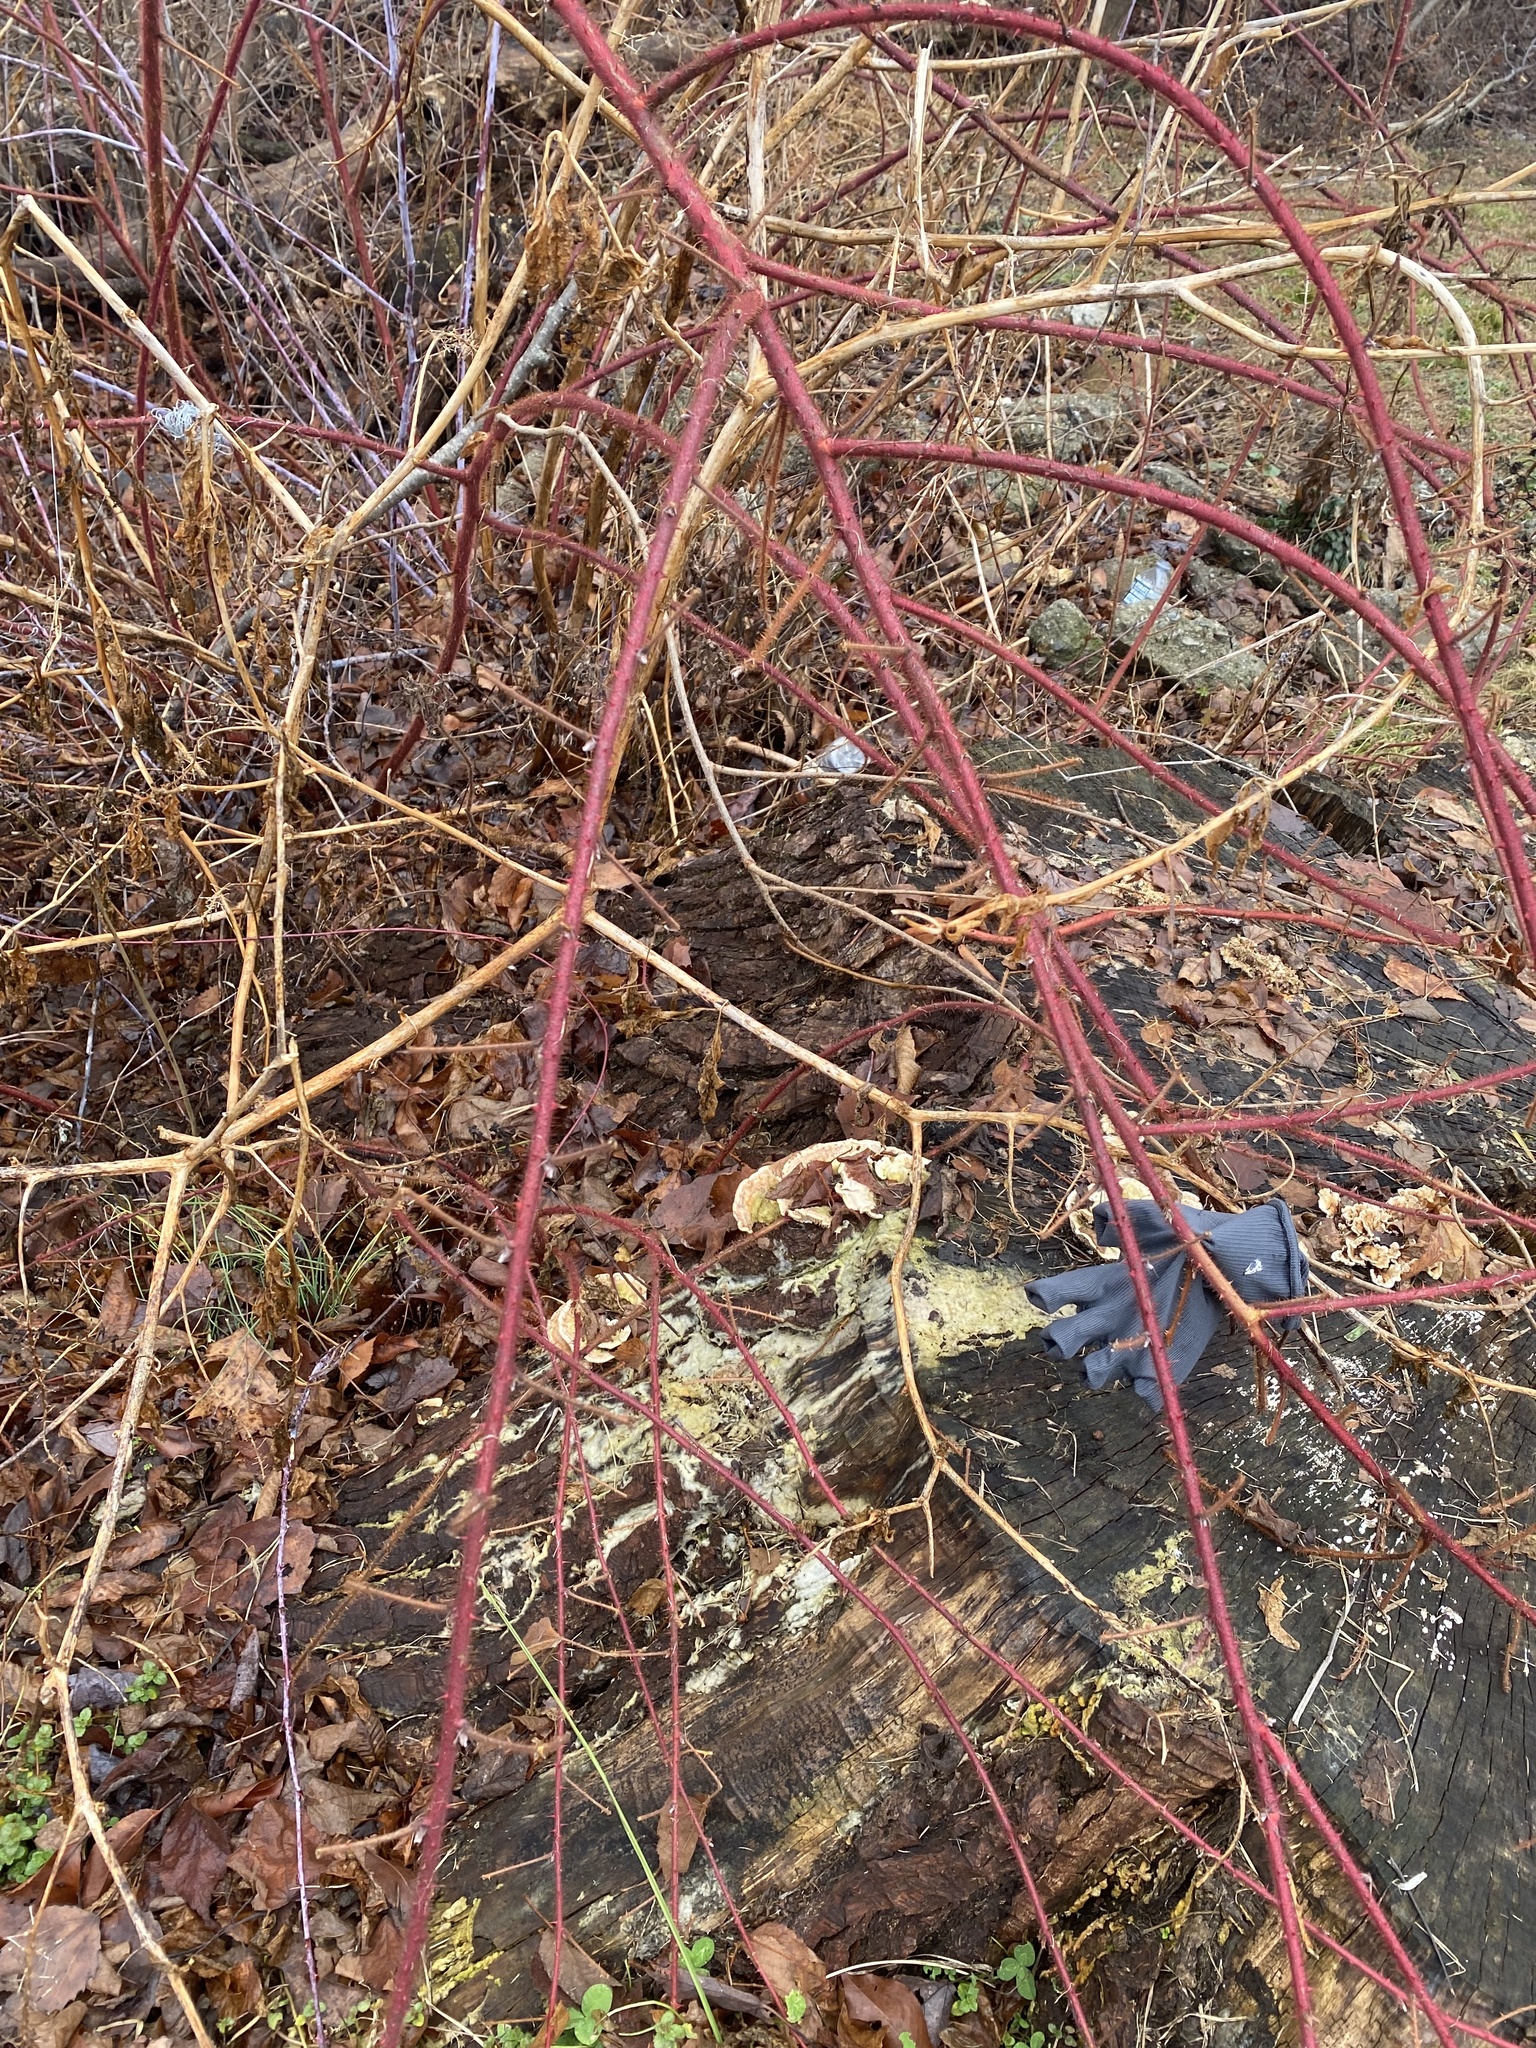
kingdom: Plantae
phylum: Tracheophyta
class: Magnoliopsida
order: Rosales
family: Rosaceae
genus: Rubus
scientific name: Rubus phoenicolasius
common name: Japanese wineberry
